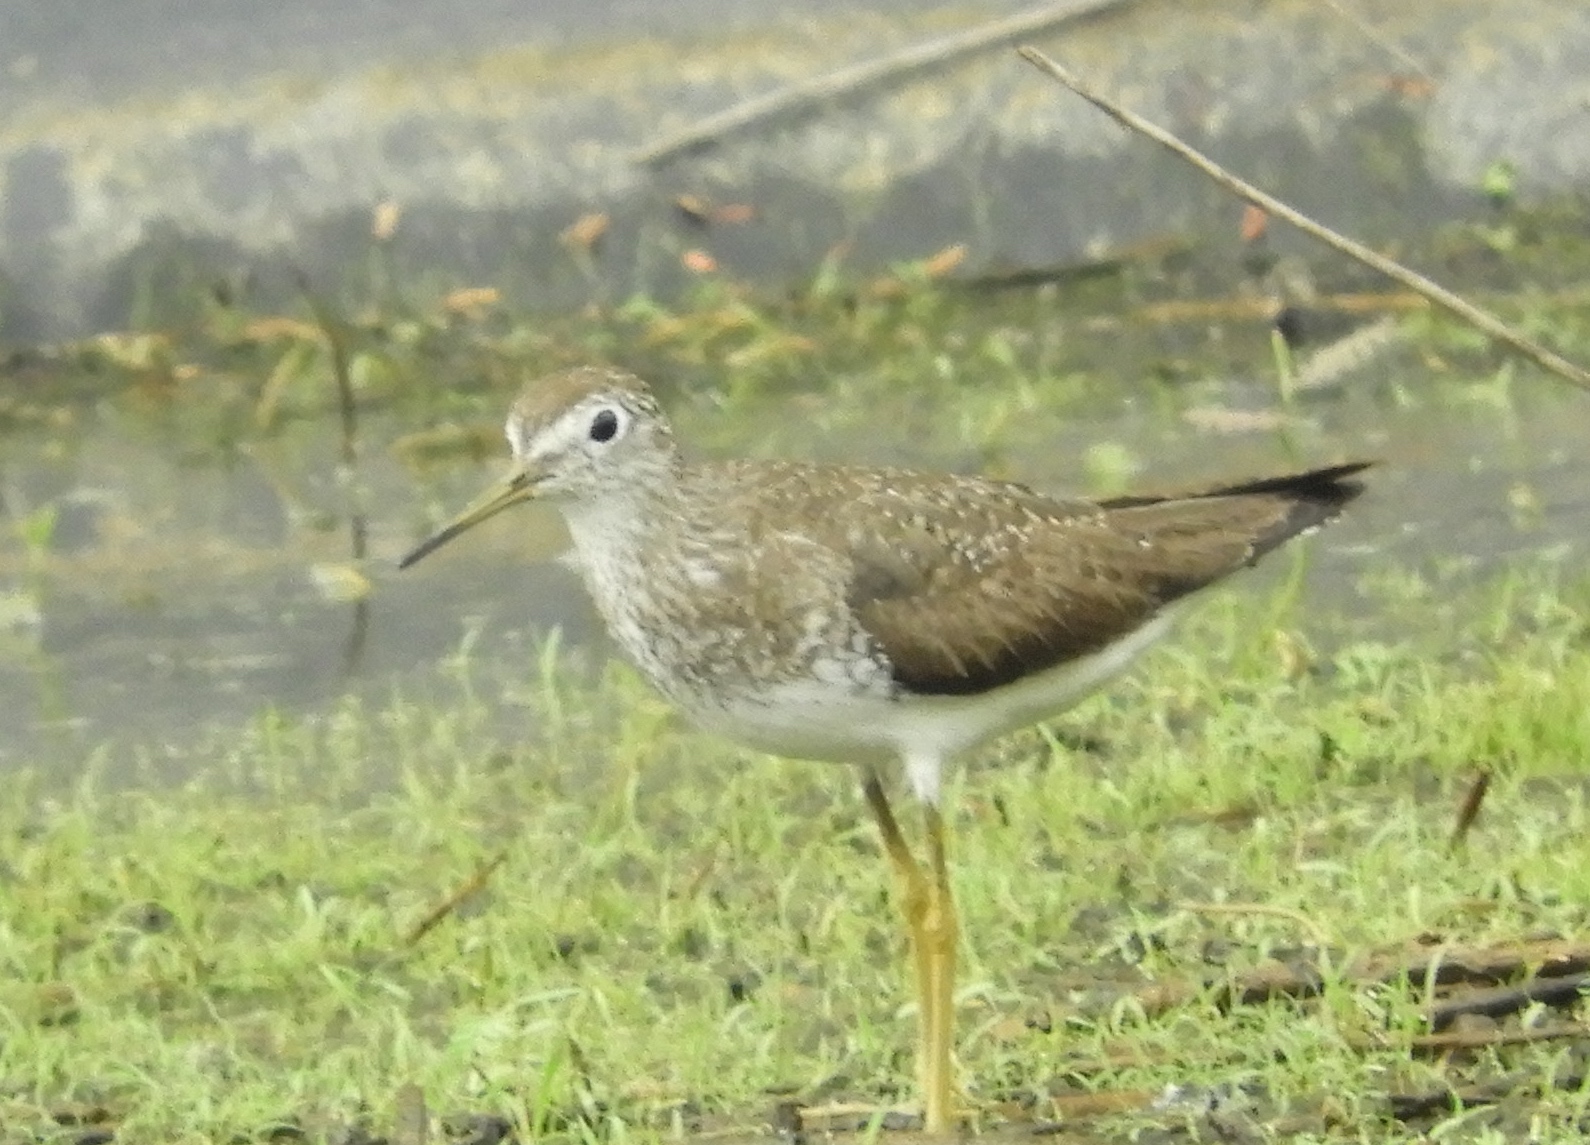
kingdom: Animalia
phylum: Chordata
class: Aves
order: Charadriiformes
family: Scolopacidae
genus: Tringa
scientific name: Tringa solitaria
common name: Solitary sandpiper
